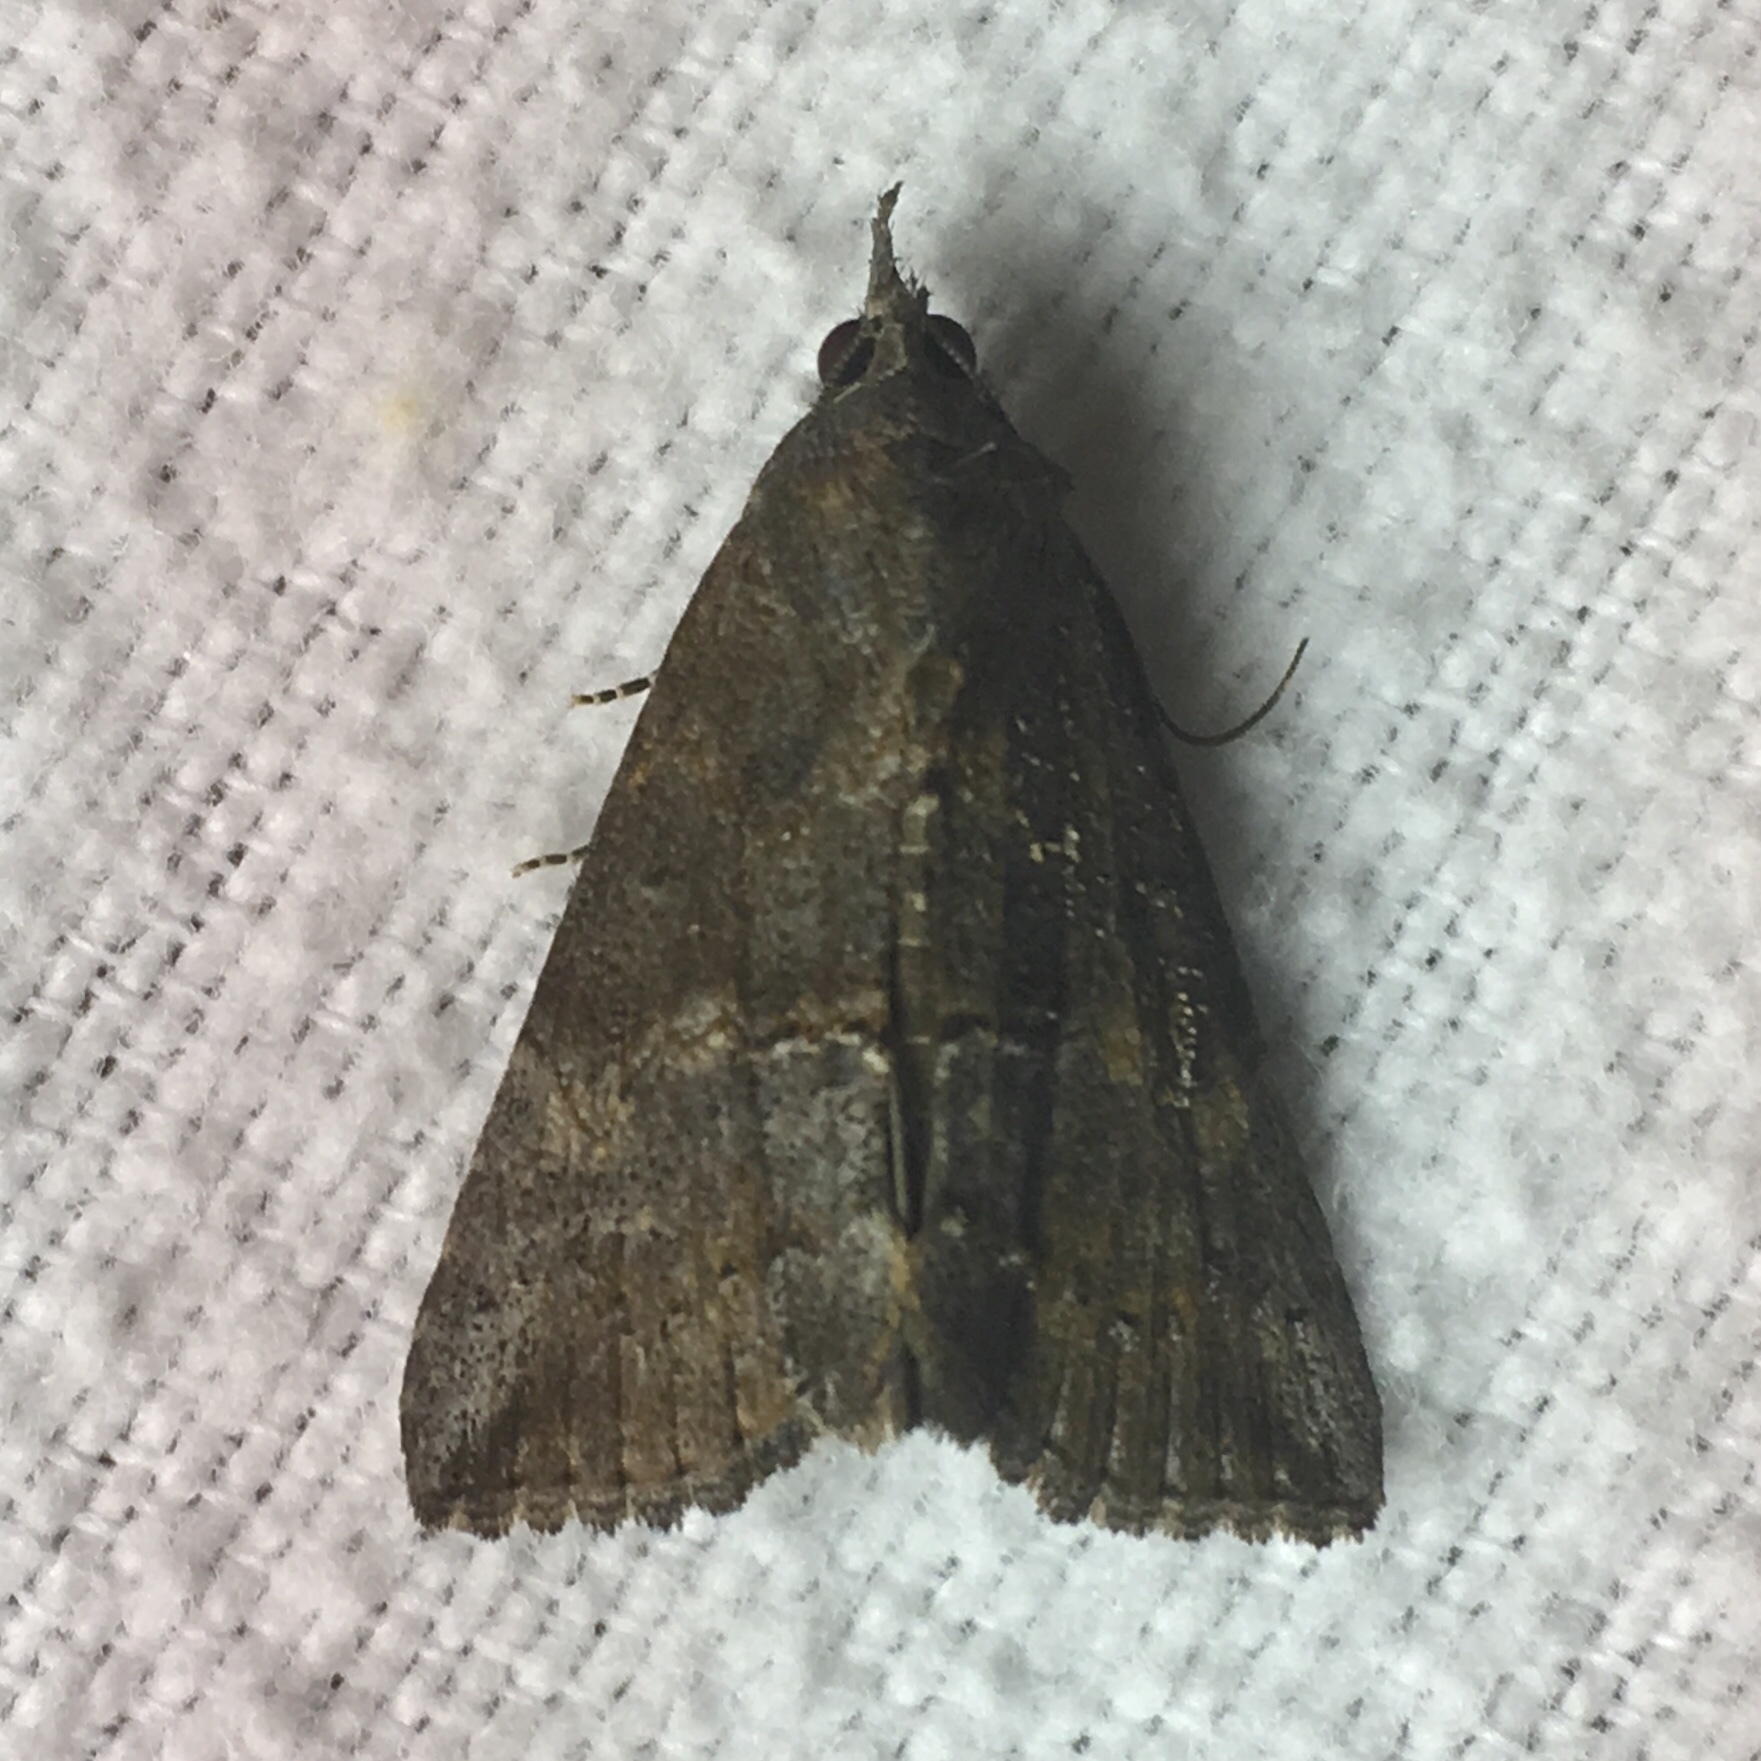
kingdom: Animalia
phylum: Arthropoda
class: Insecta
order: Lepidoptera
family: Erebidae
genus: Hypena
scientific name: Hypena scabra
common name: Green cloverworm
